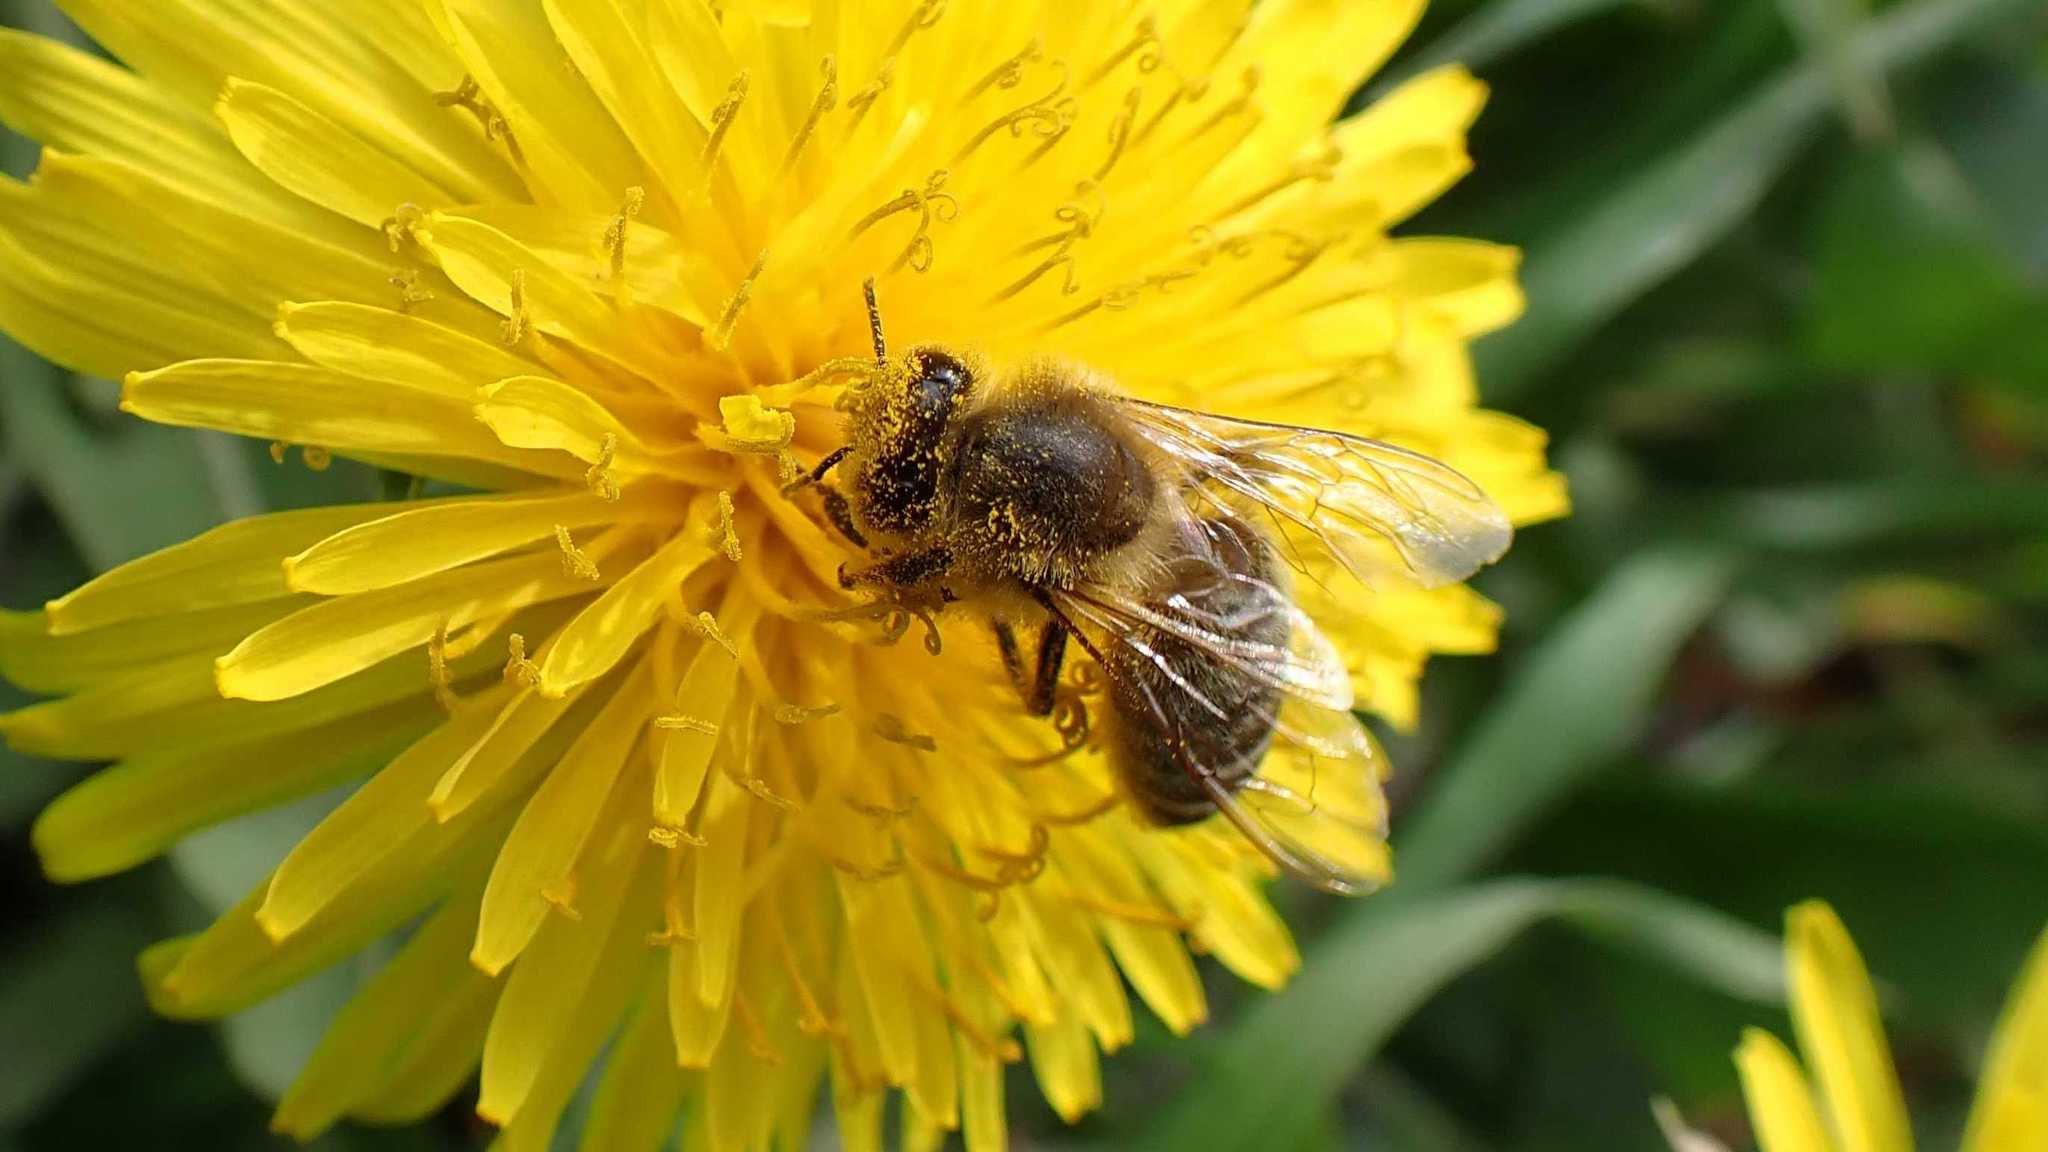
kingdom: Animalia
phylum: Arthropoda
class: Insecta
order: Hymenoptera
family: Apidae
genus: Apis
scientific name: Apis mellifera
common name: Honey bee
